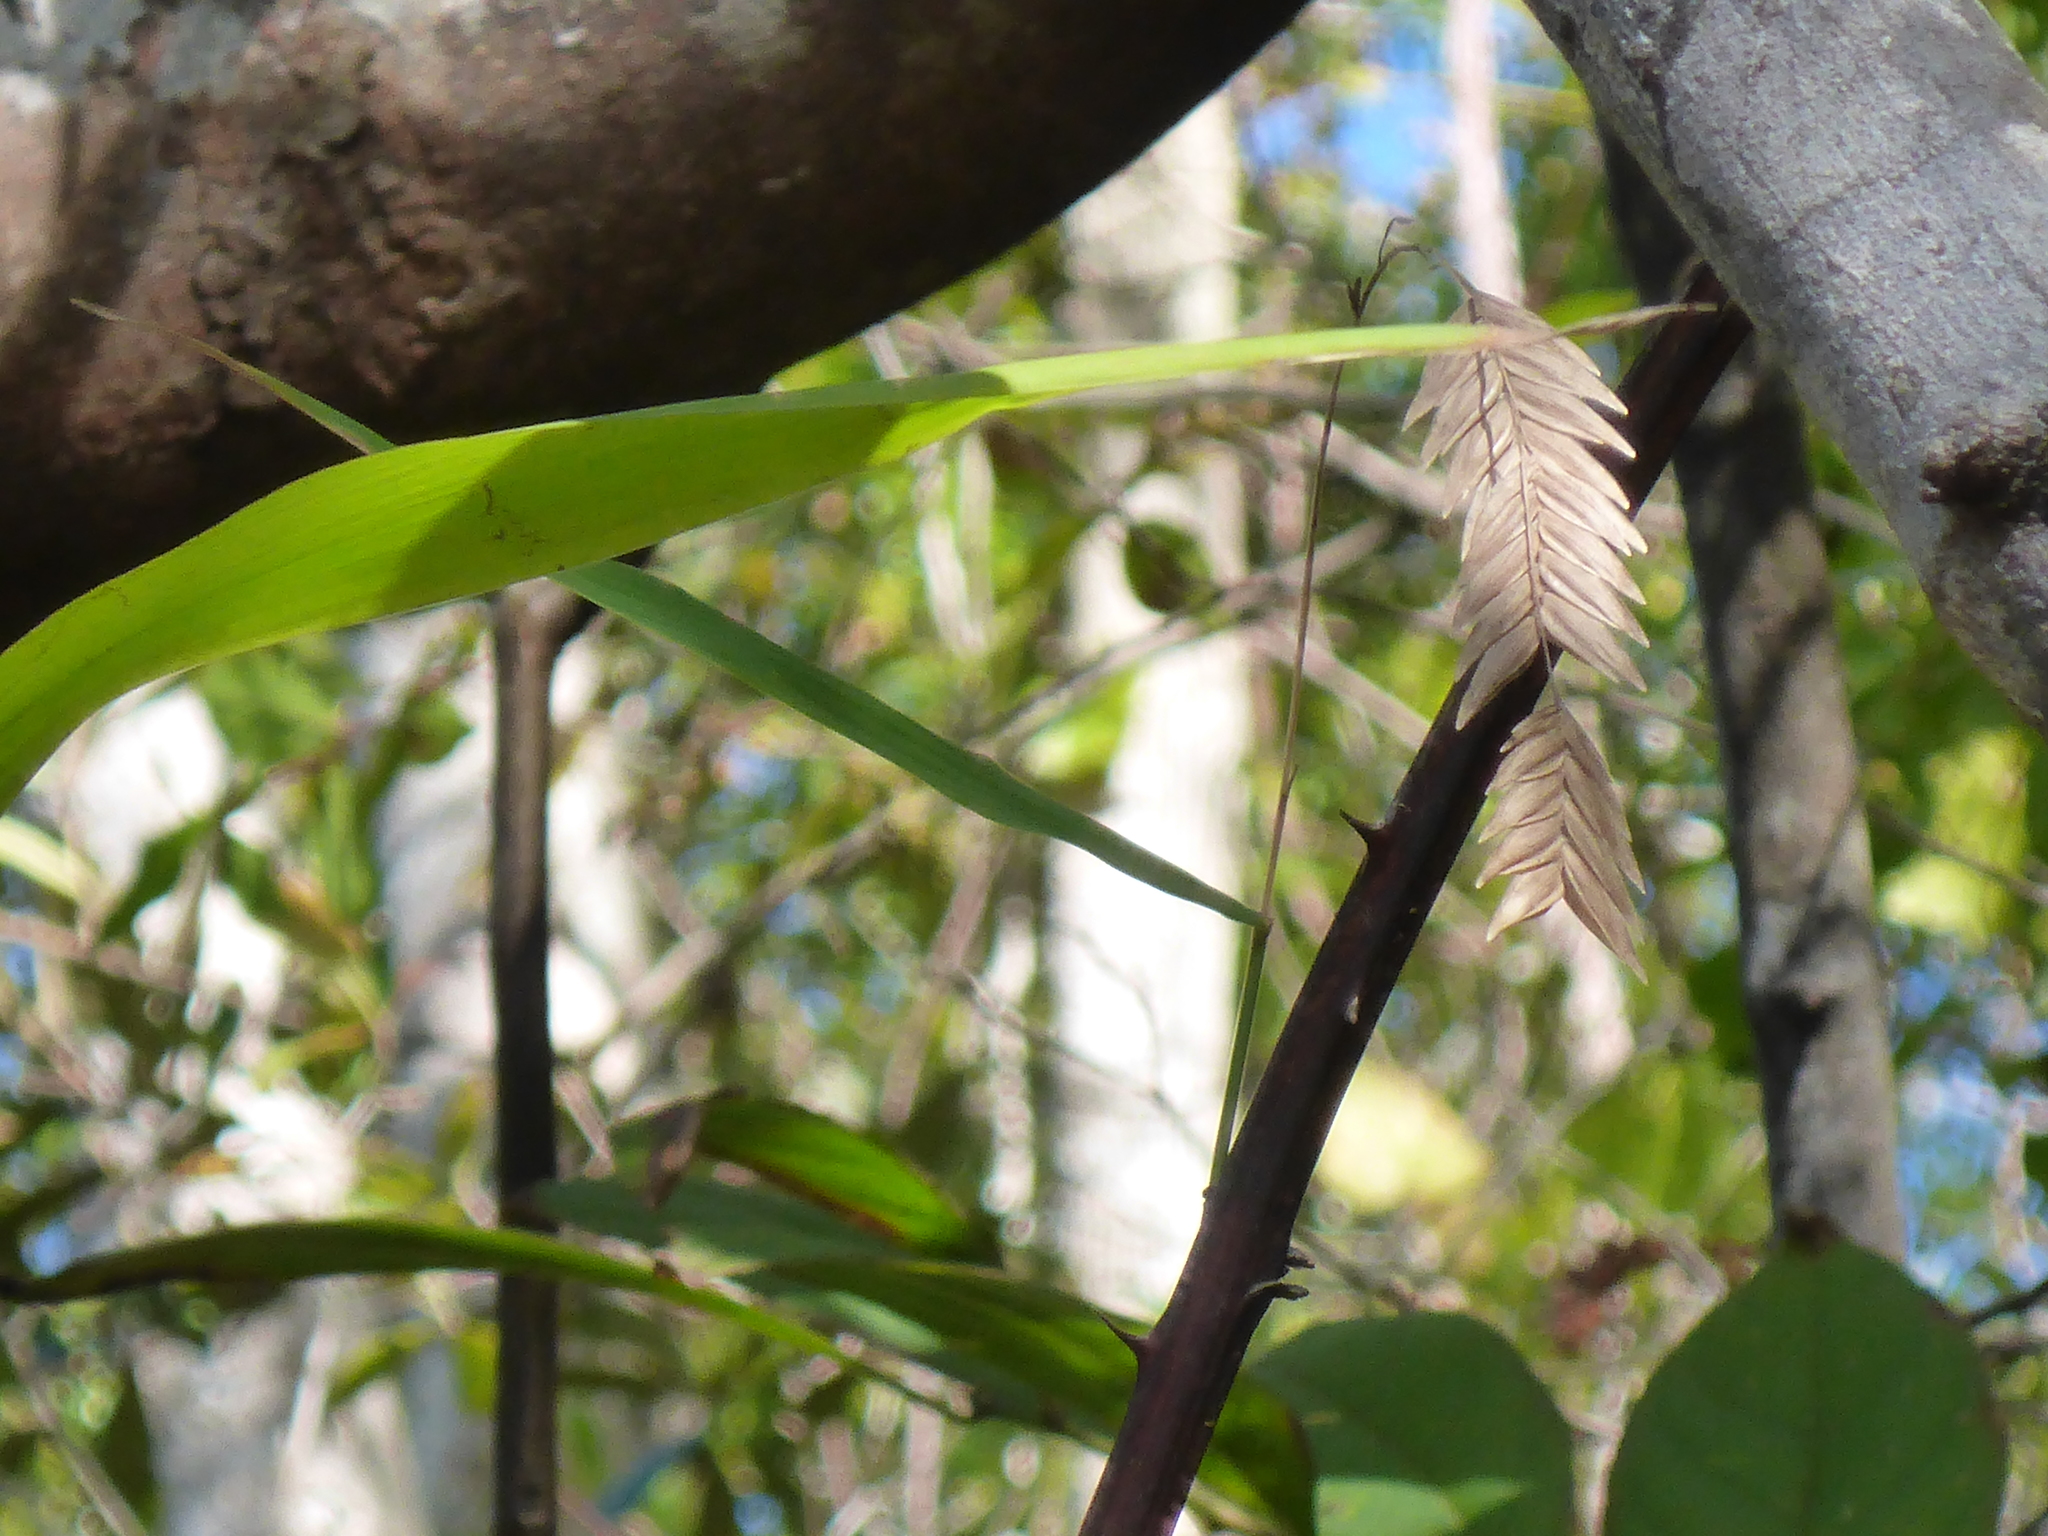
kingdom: Plantae
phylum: Tracheophyta
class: Liliopsida
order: Poales
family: Poaceae
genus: Chasmanthium
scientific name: Chasmanthium latifolium
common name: Broad-leaved chasmanthium
